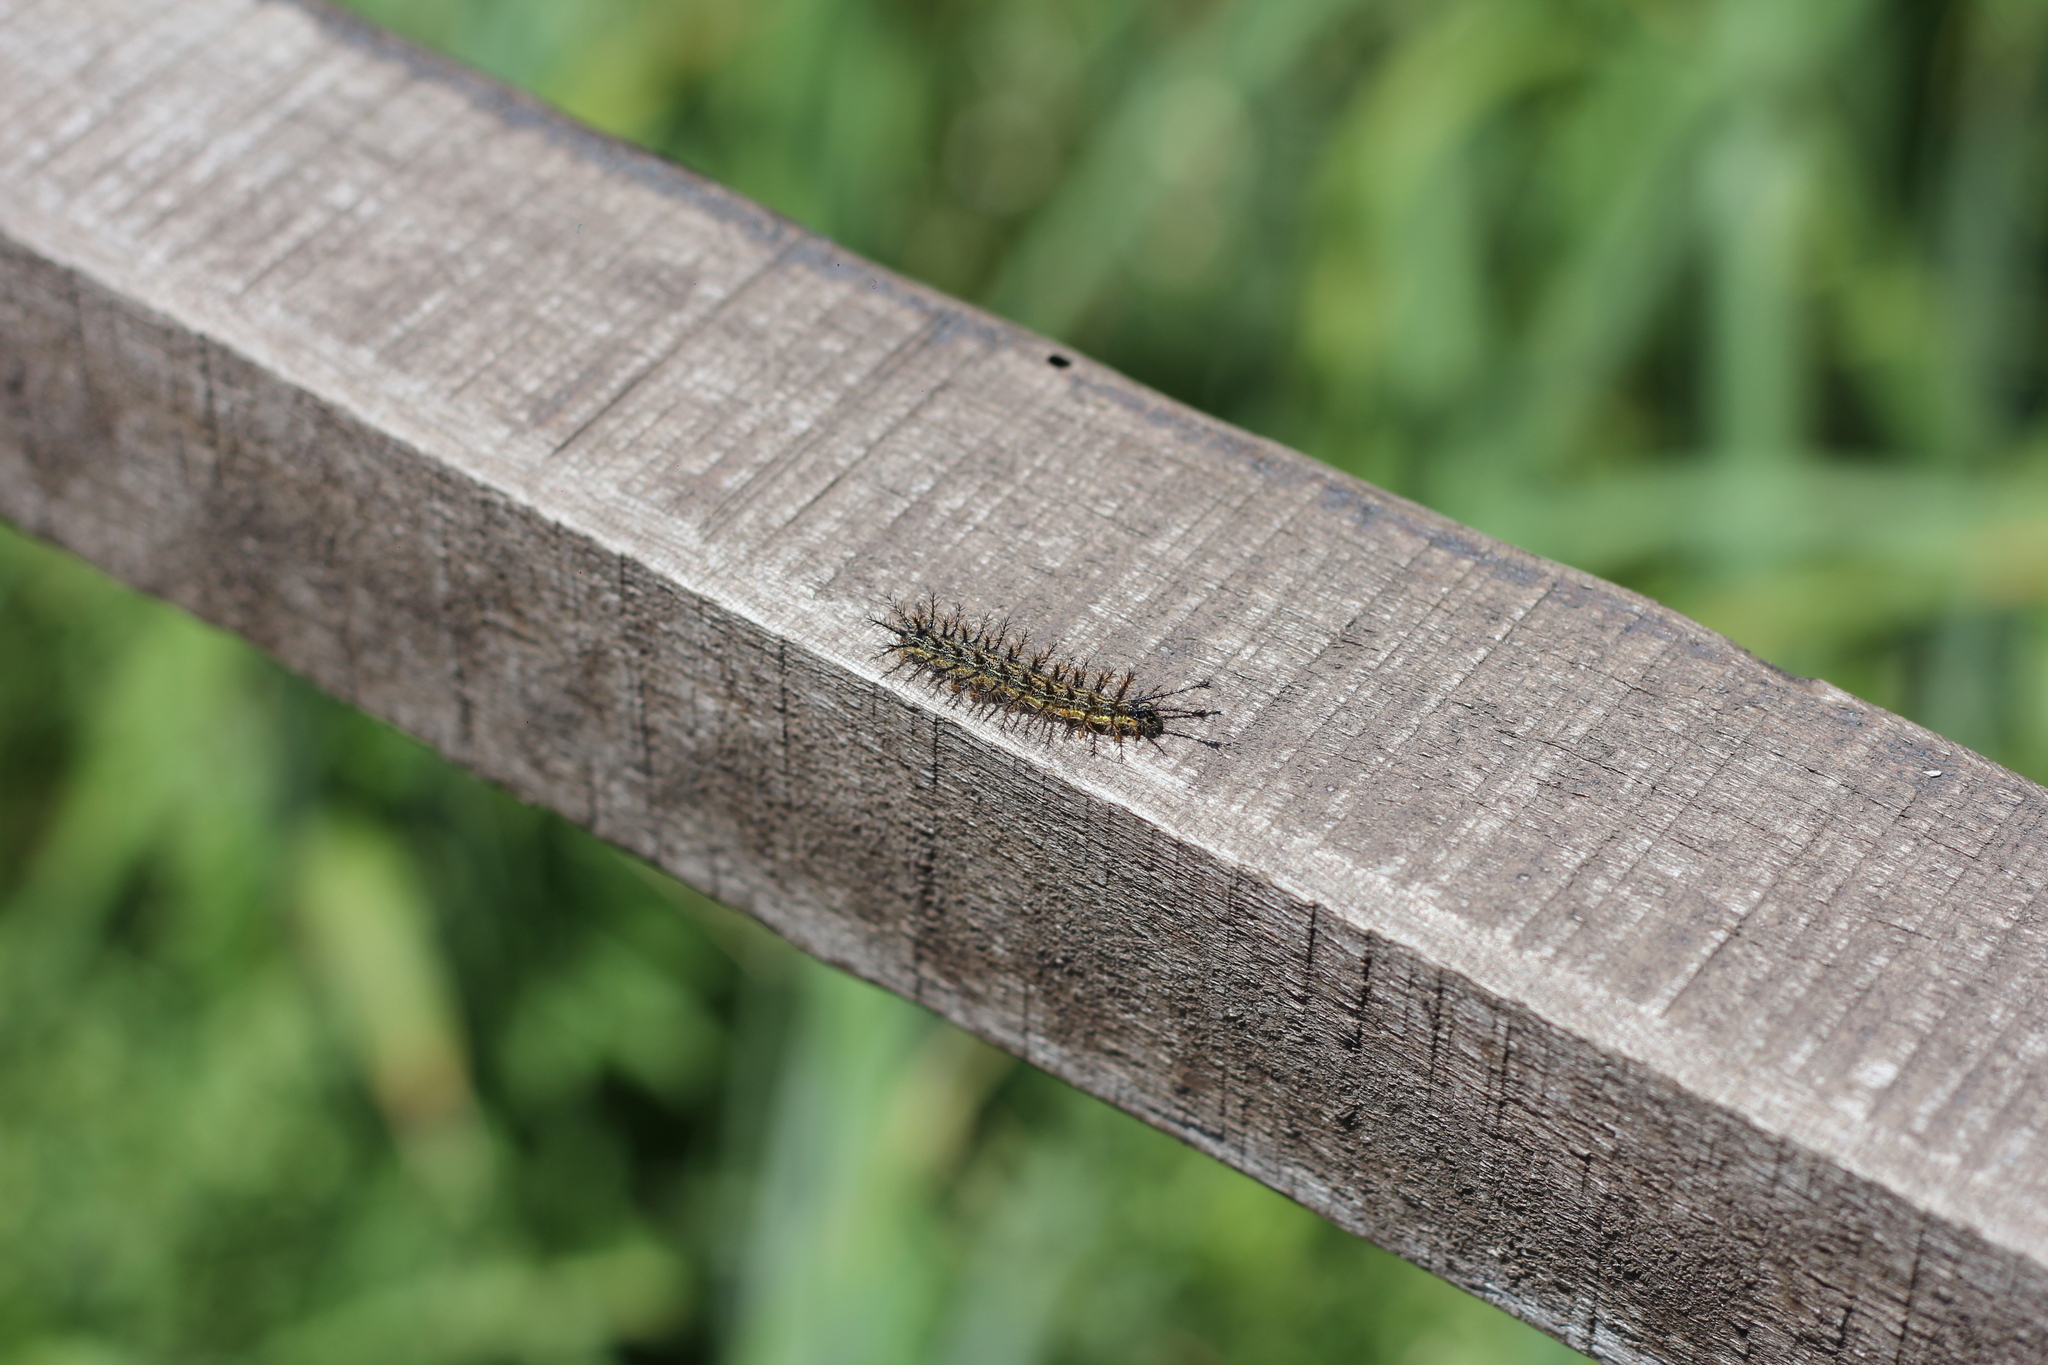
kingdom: Animalia
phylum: Arthropoda
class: Insecta
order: Lepidoptera
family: Saturniidae
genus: Hylesia
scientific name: Hylesia nigricans
